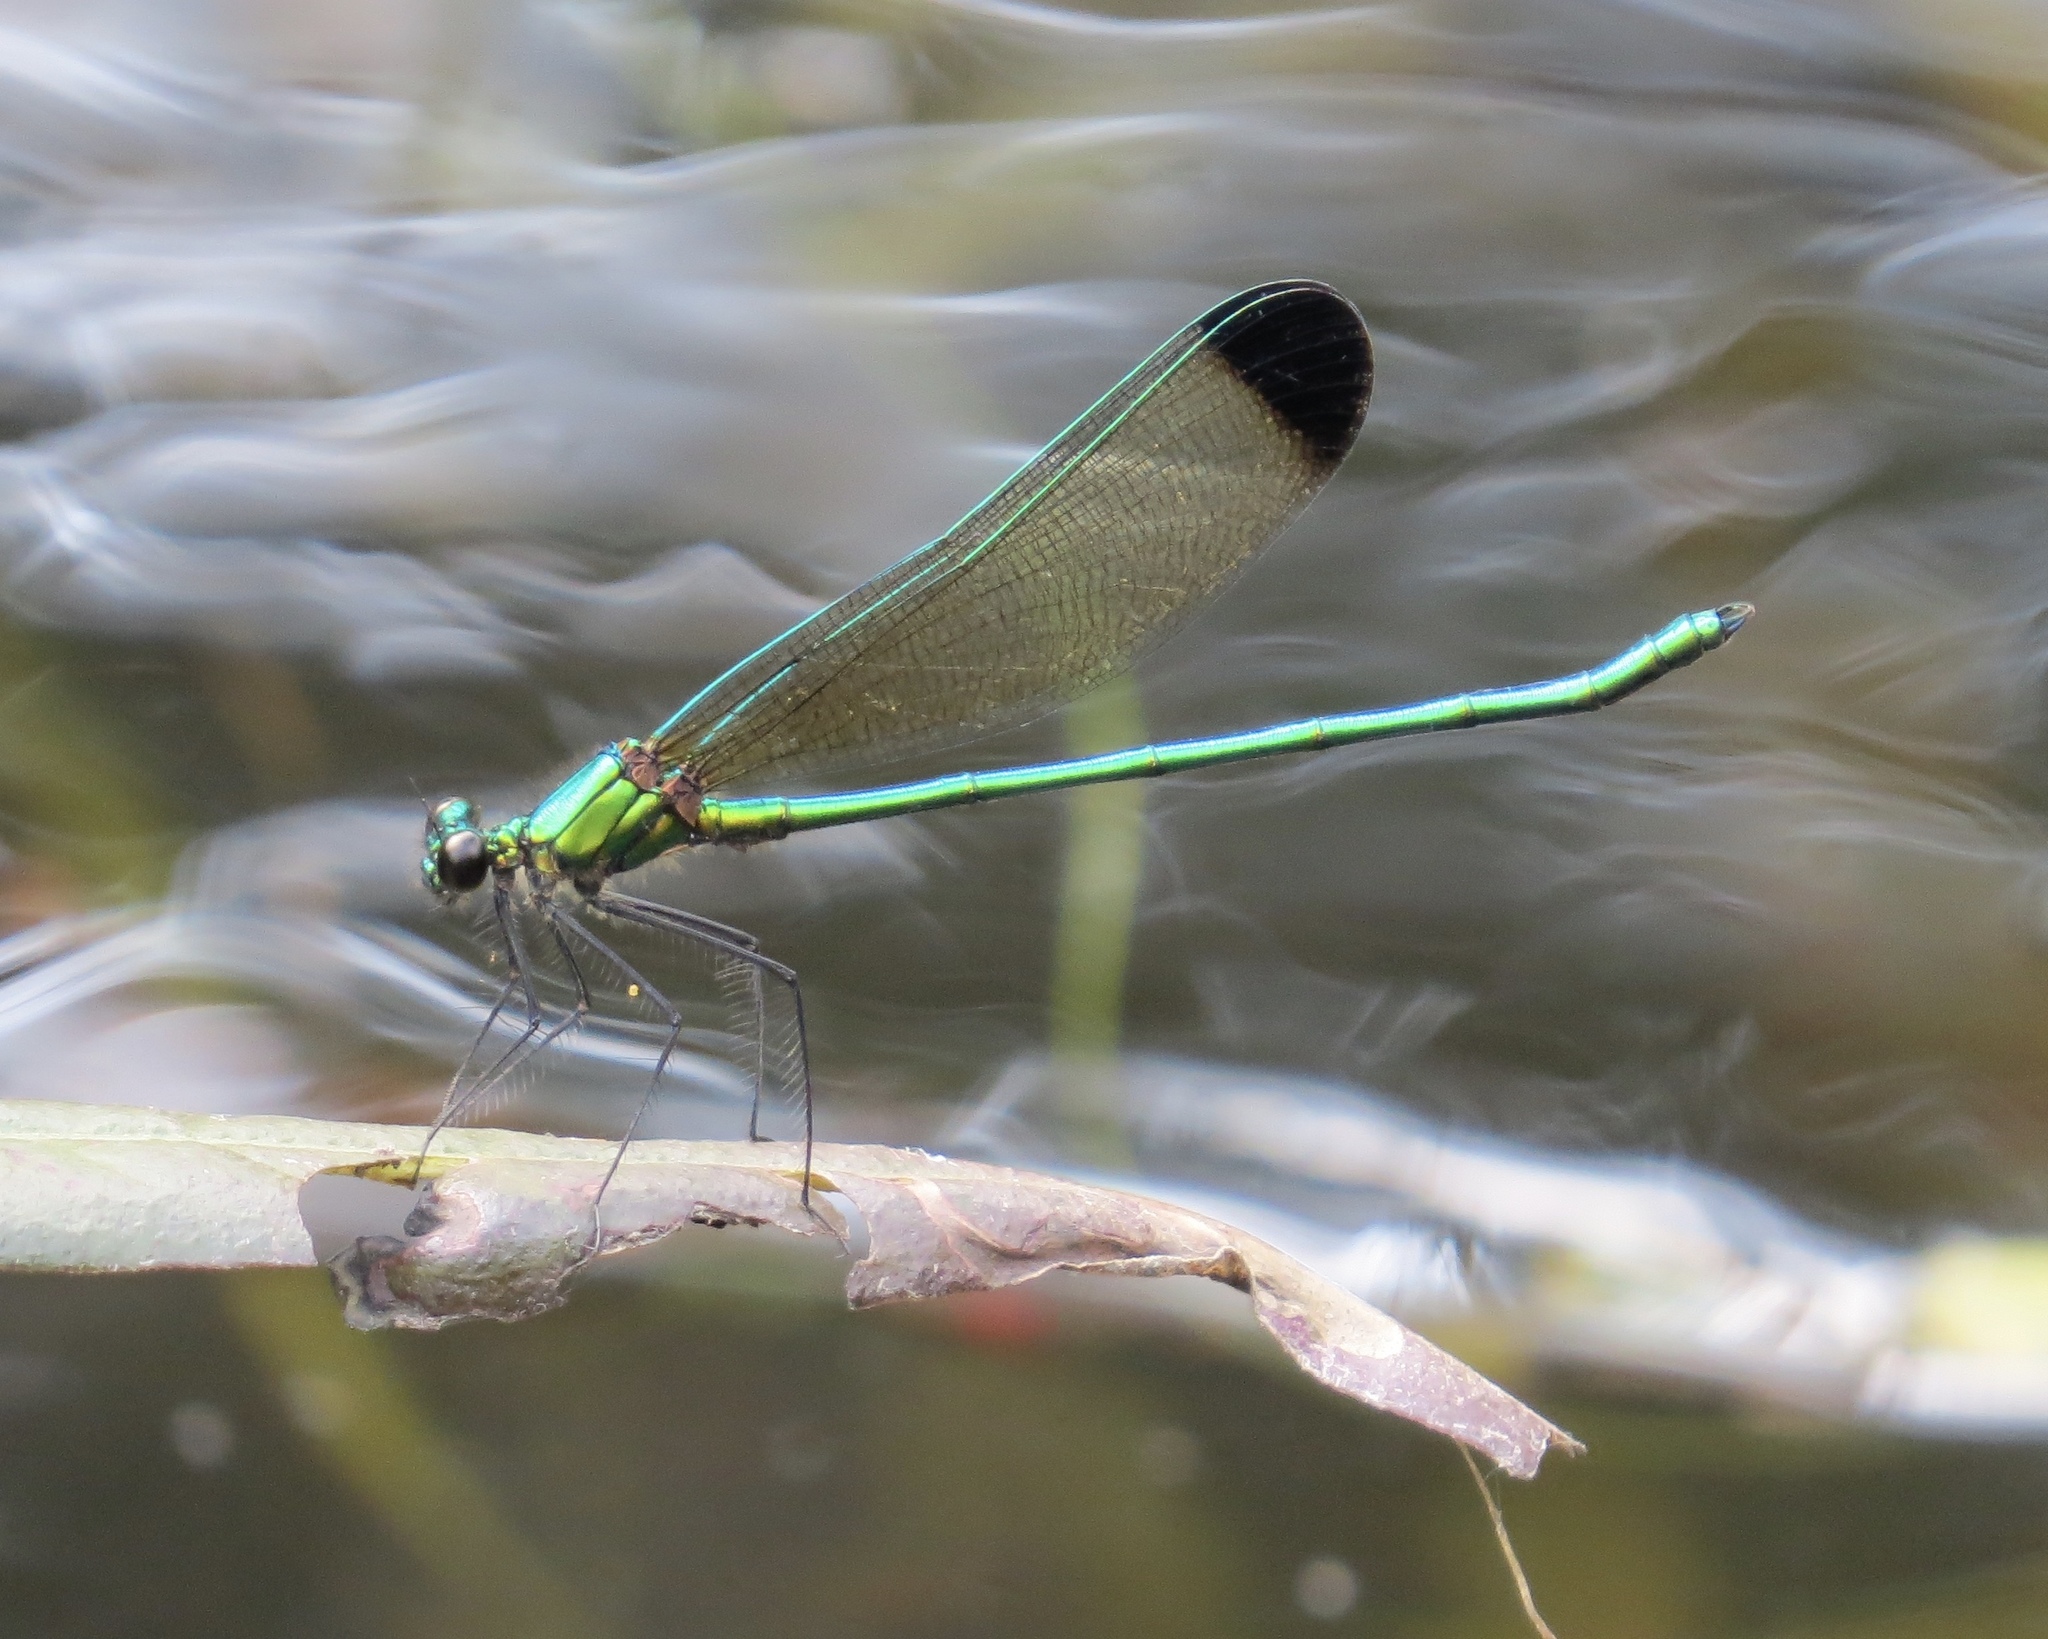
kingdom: Animalia
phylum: Arthropoda
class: Insecta
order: Odonata
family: Calopterygidae
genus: Calopteryx
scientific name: Calopteryx dimidiata
